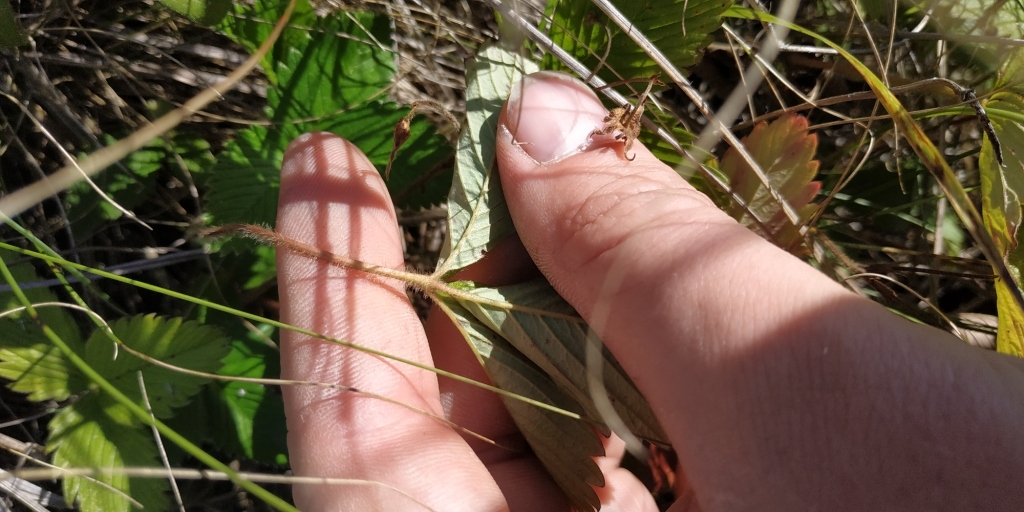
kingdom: Plantae
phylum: Tracheophyta
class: Magnoliopsida
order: Rosales
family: Rosaceae
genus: Fragaria
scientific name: Fragaria viridis
